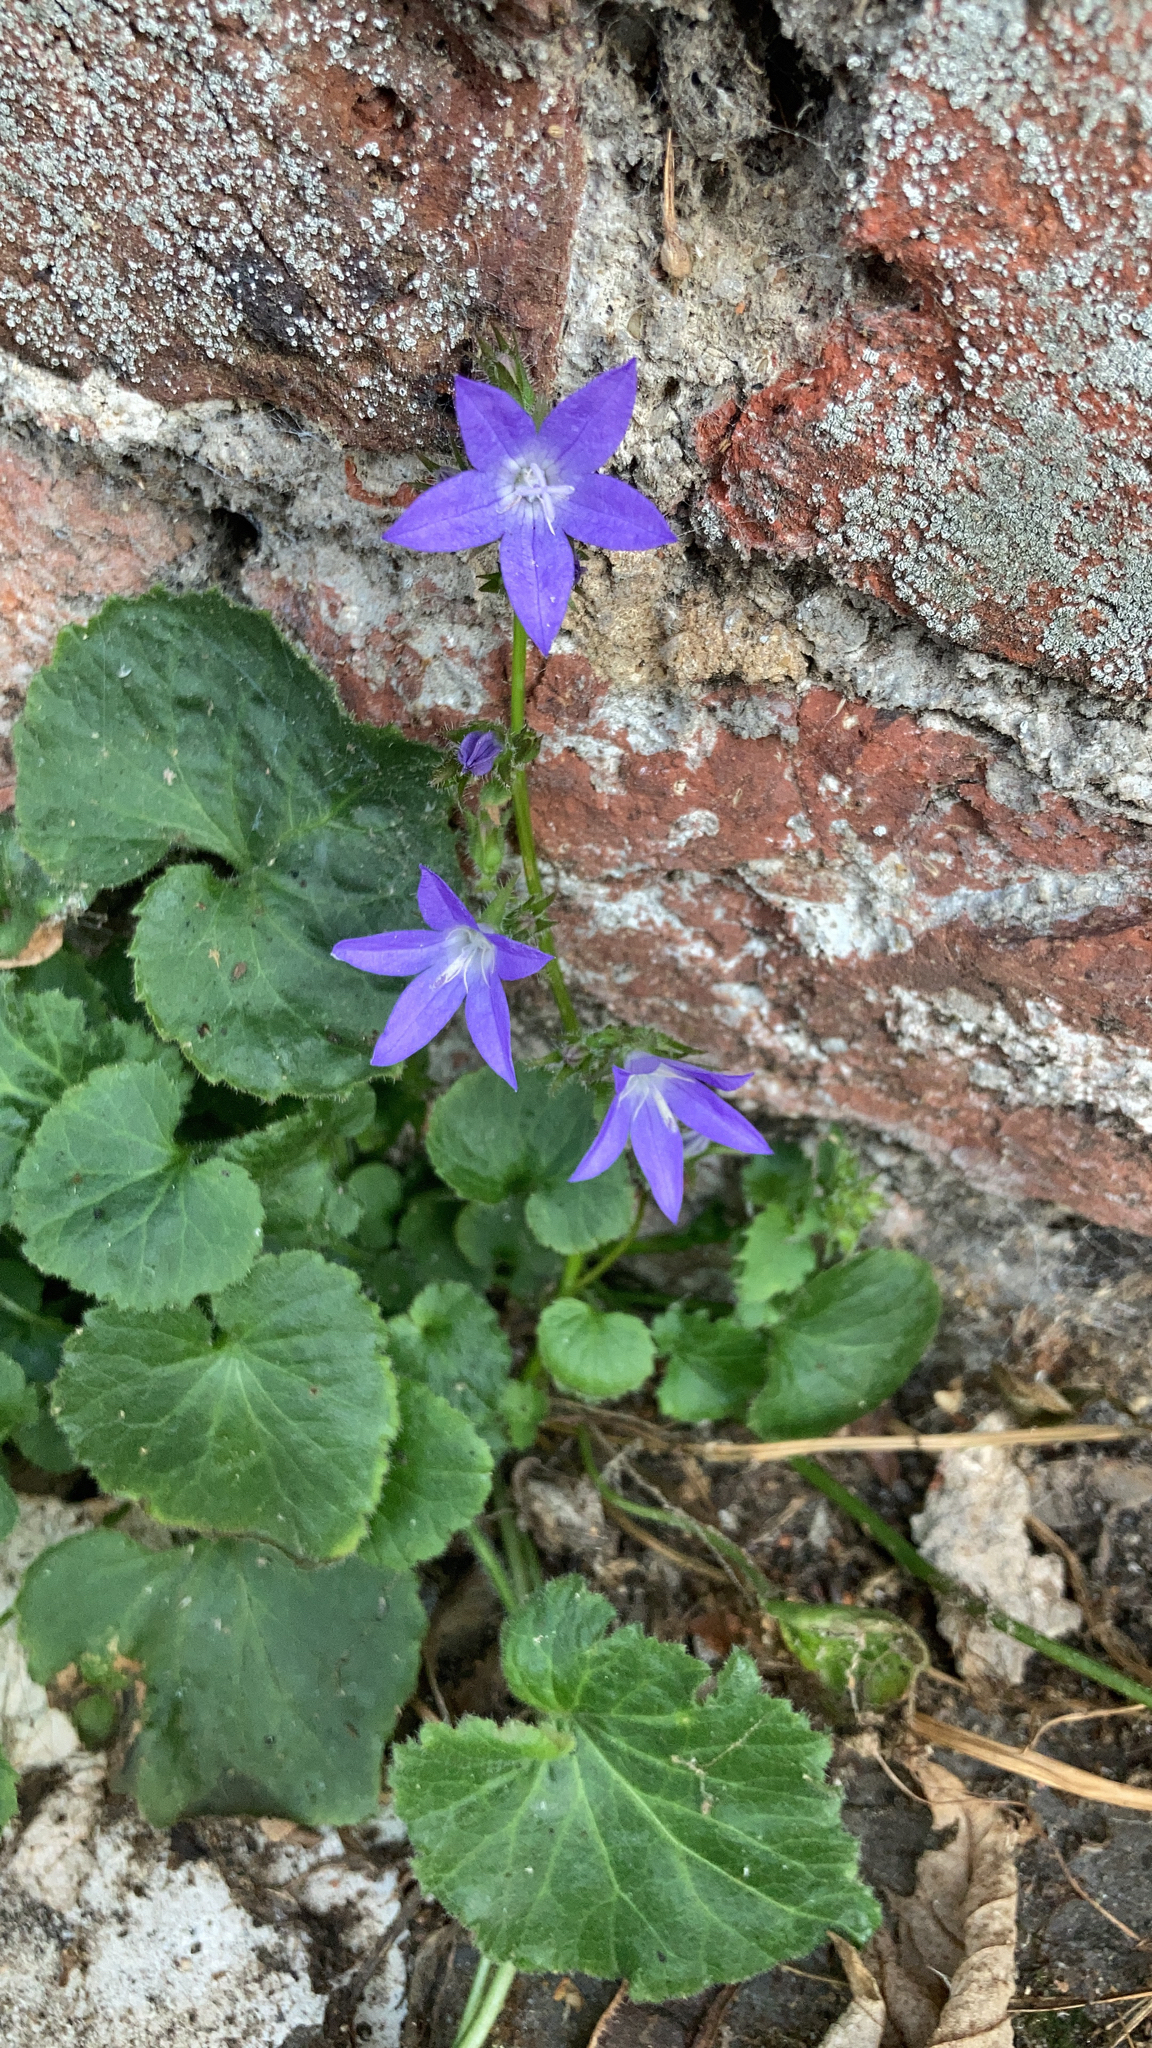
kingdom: Plantae
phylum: Tracheophyta
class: Magnoliopsida
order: Asterales
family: Campanulaceae
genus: Campanula
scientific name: Campanula poscharskyana
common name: Trailing bellflower
